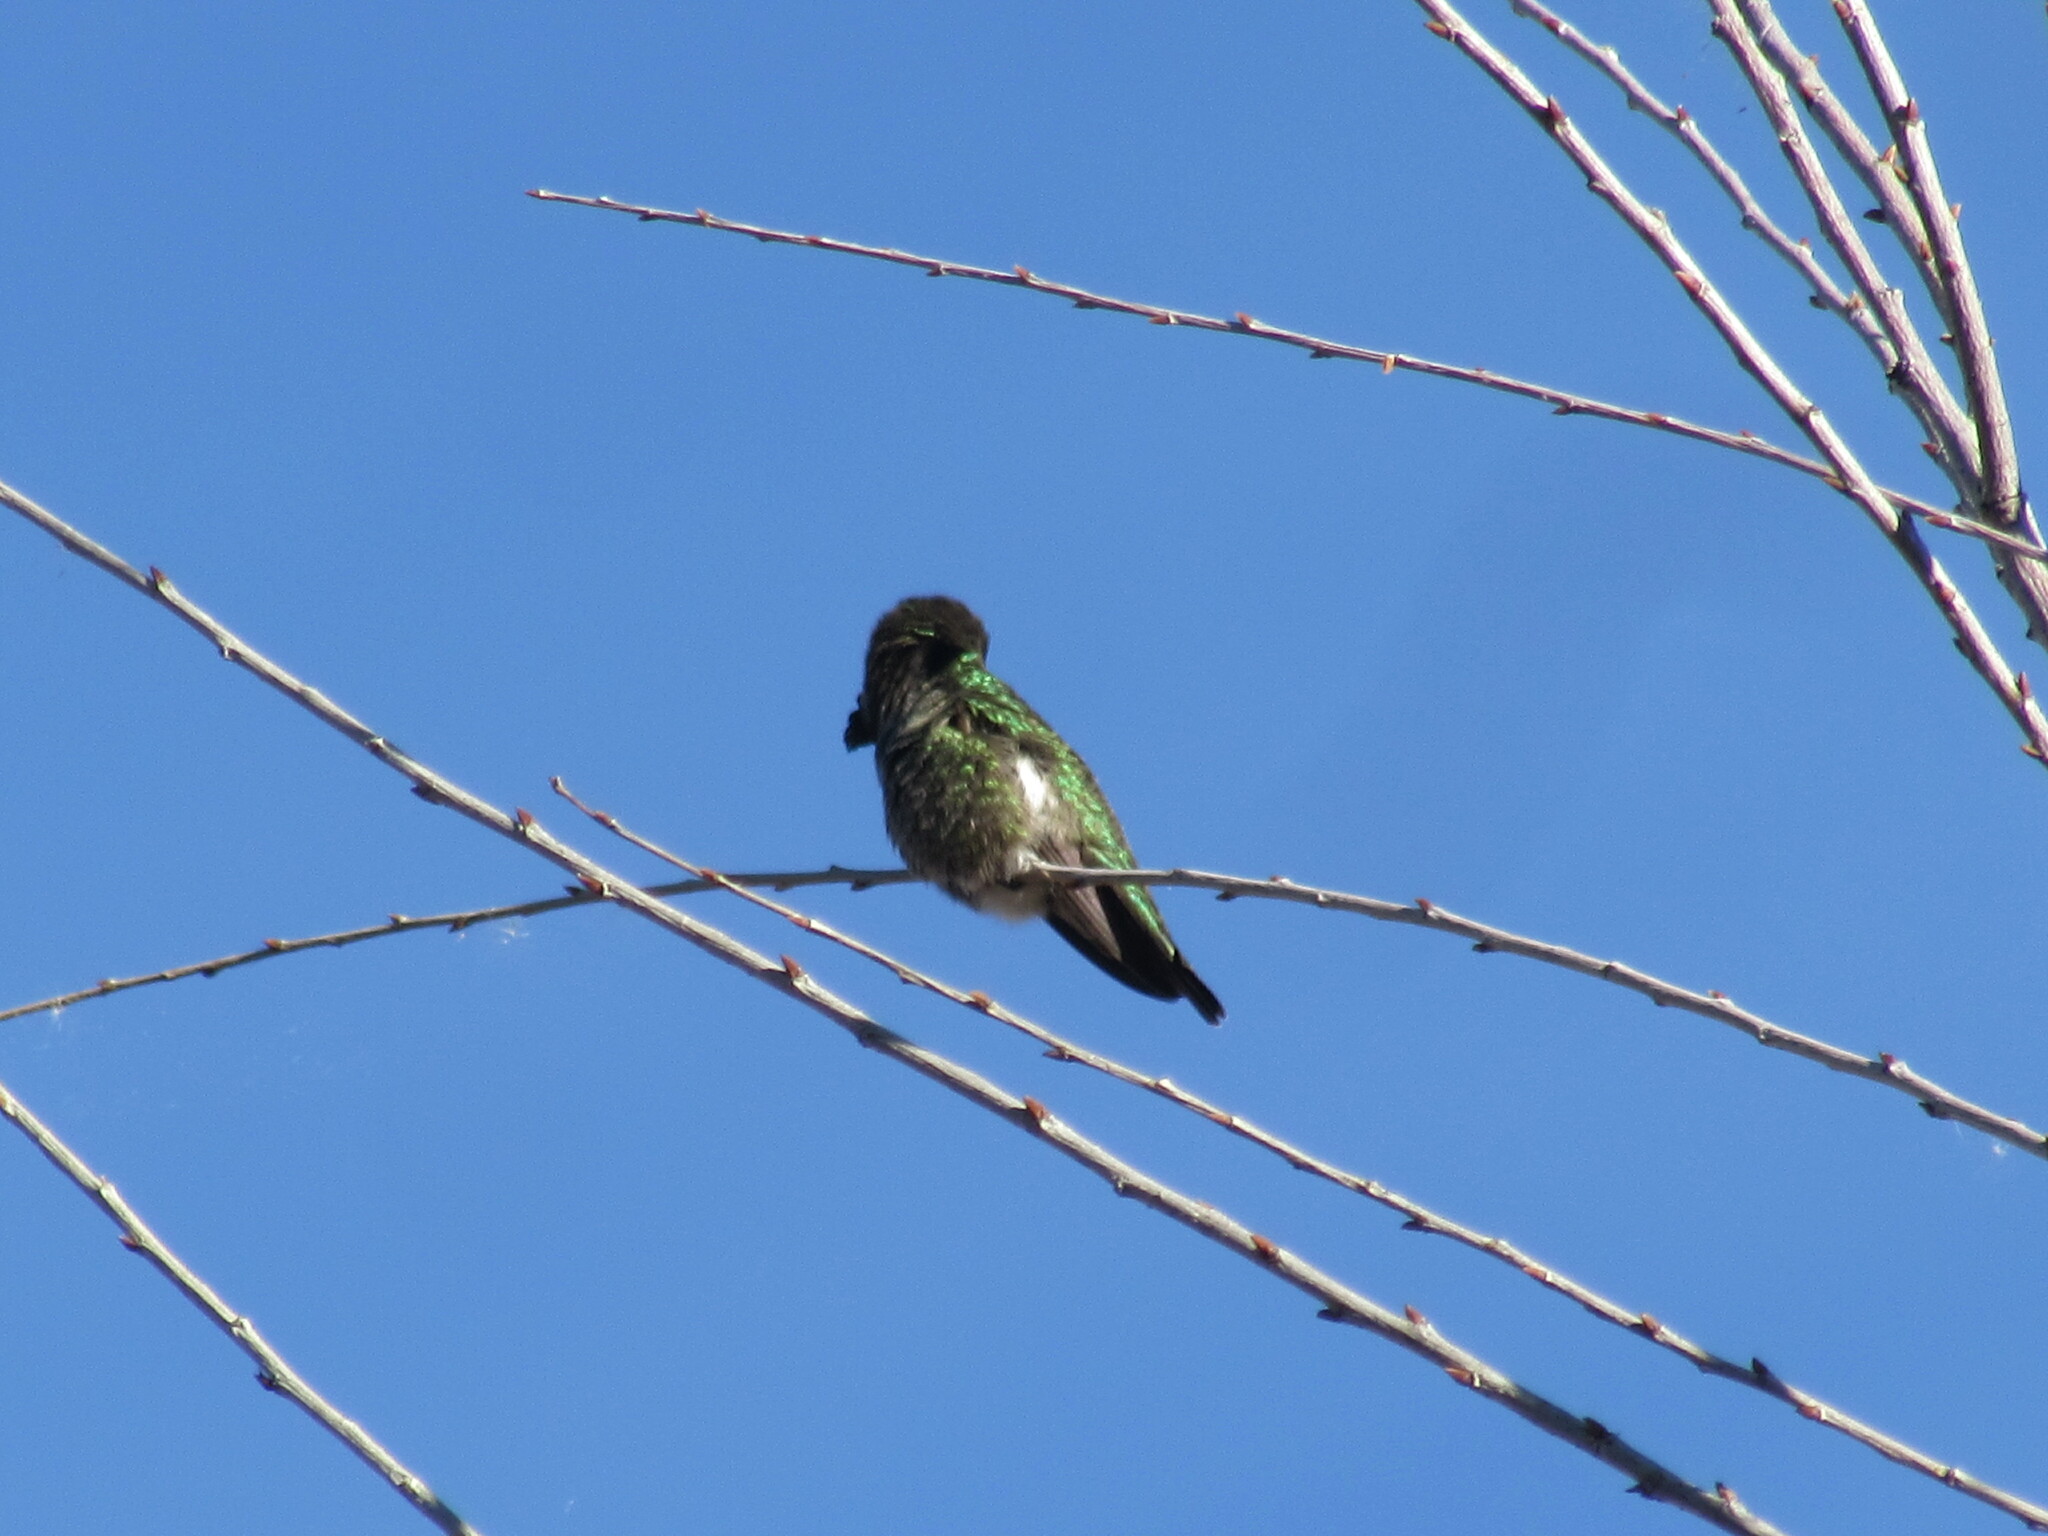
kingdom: Animalia
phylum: Chordata
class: Aves
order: Apodiformes
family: Trochilidae
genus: Calypte
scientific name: Calypte anna
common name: Anna's hummingbird
